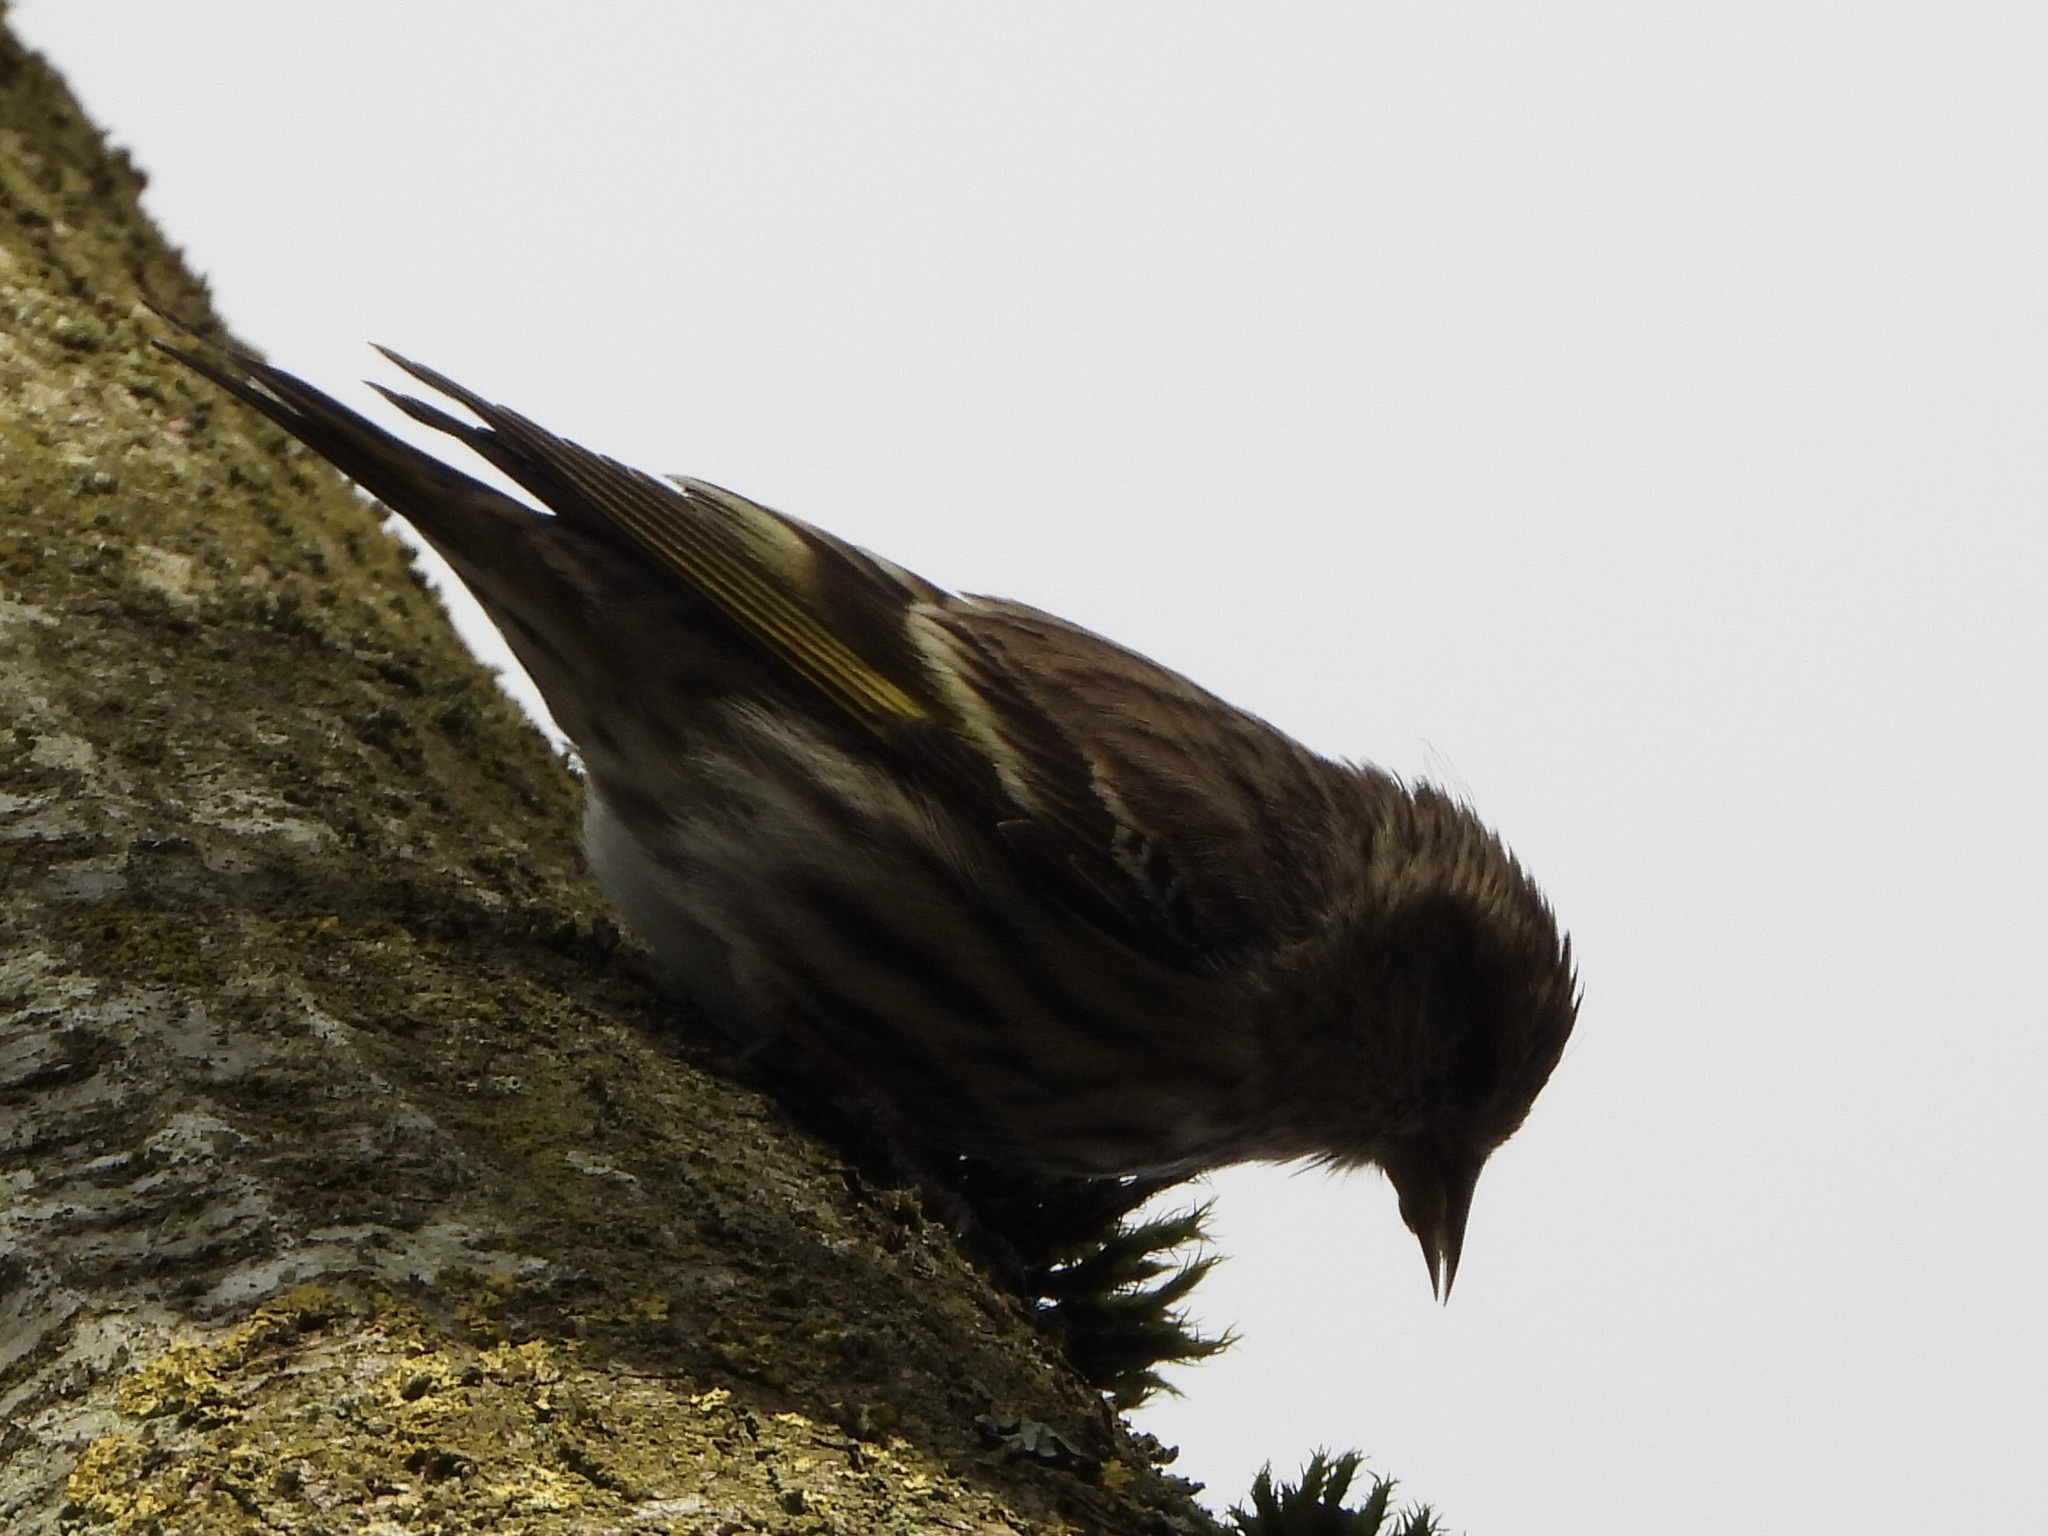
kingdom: Animalia
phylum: Chordata
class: Aves
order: Passeriformes
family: Fringillidae
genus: Spinus
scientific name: Spinus pinus
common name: Pine siskin
